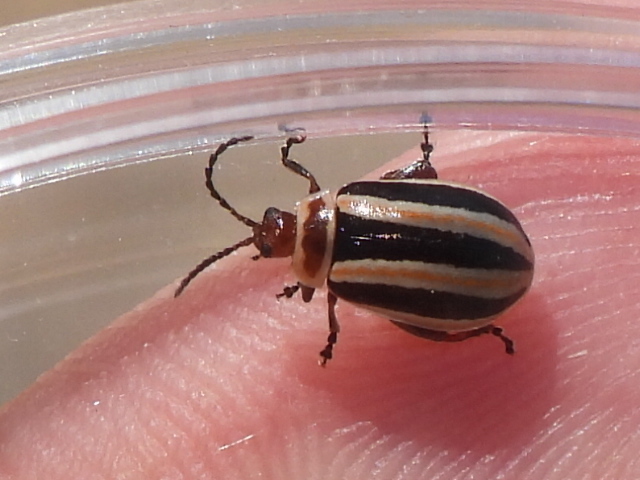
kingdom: Animalia
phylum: Arthropoda
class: Insecta
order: Coleoptera
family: Chrysomelidae
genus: Kuschelina
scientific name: Kuschelina miniata
